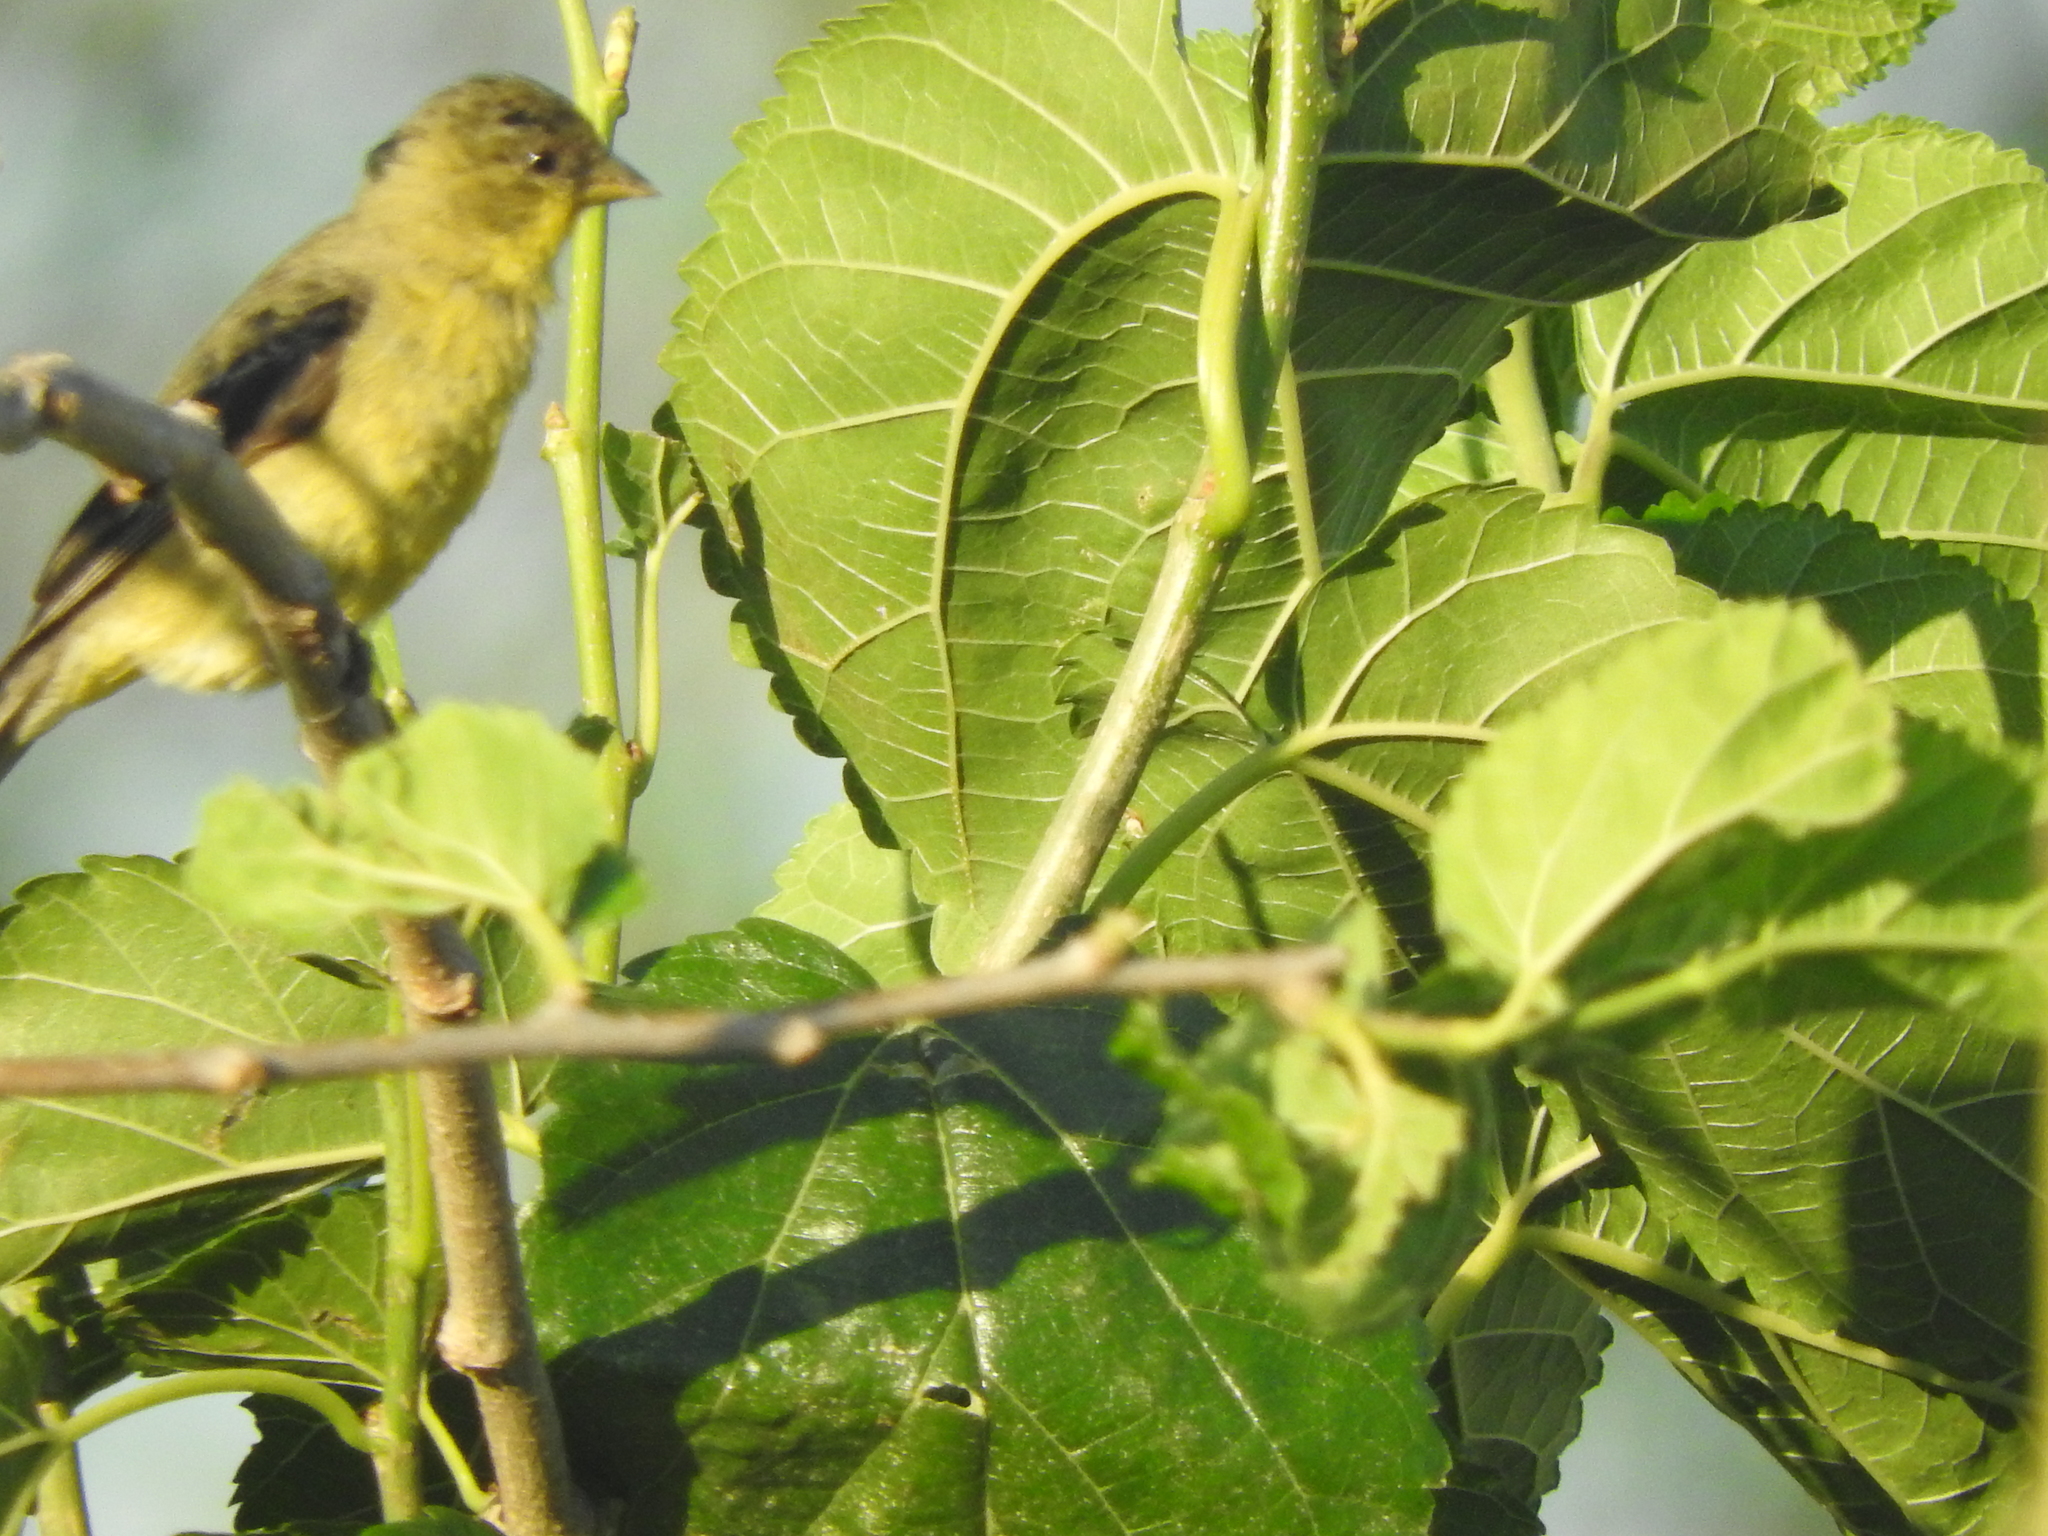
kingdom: Animalia
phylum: Chordata
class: Aves
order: Passeriformes
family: Fringillidae
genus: Spinus
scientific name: Spinus psaltria
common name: Lesser goldfinch
